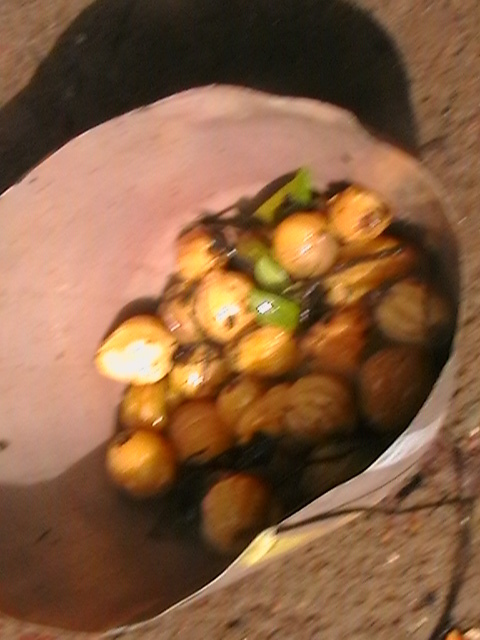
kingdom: Plantae
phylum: Tracheophyta
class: Magnoliopsida
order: Malpighiales
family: Clusiaceae
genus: Garcinia
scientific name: Garcinia gummi-gutta
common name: Malabar tamarind
